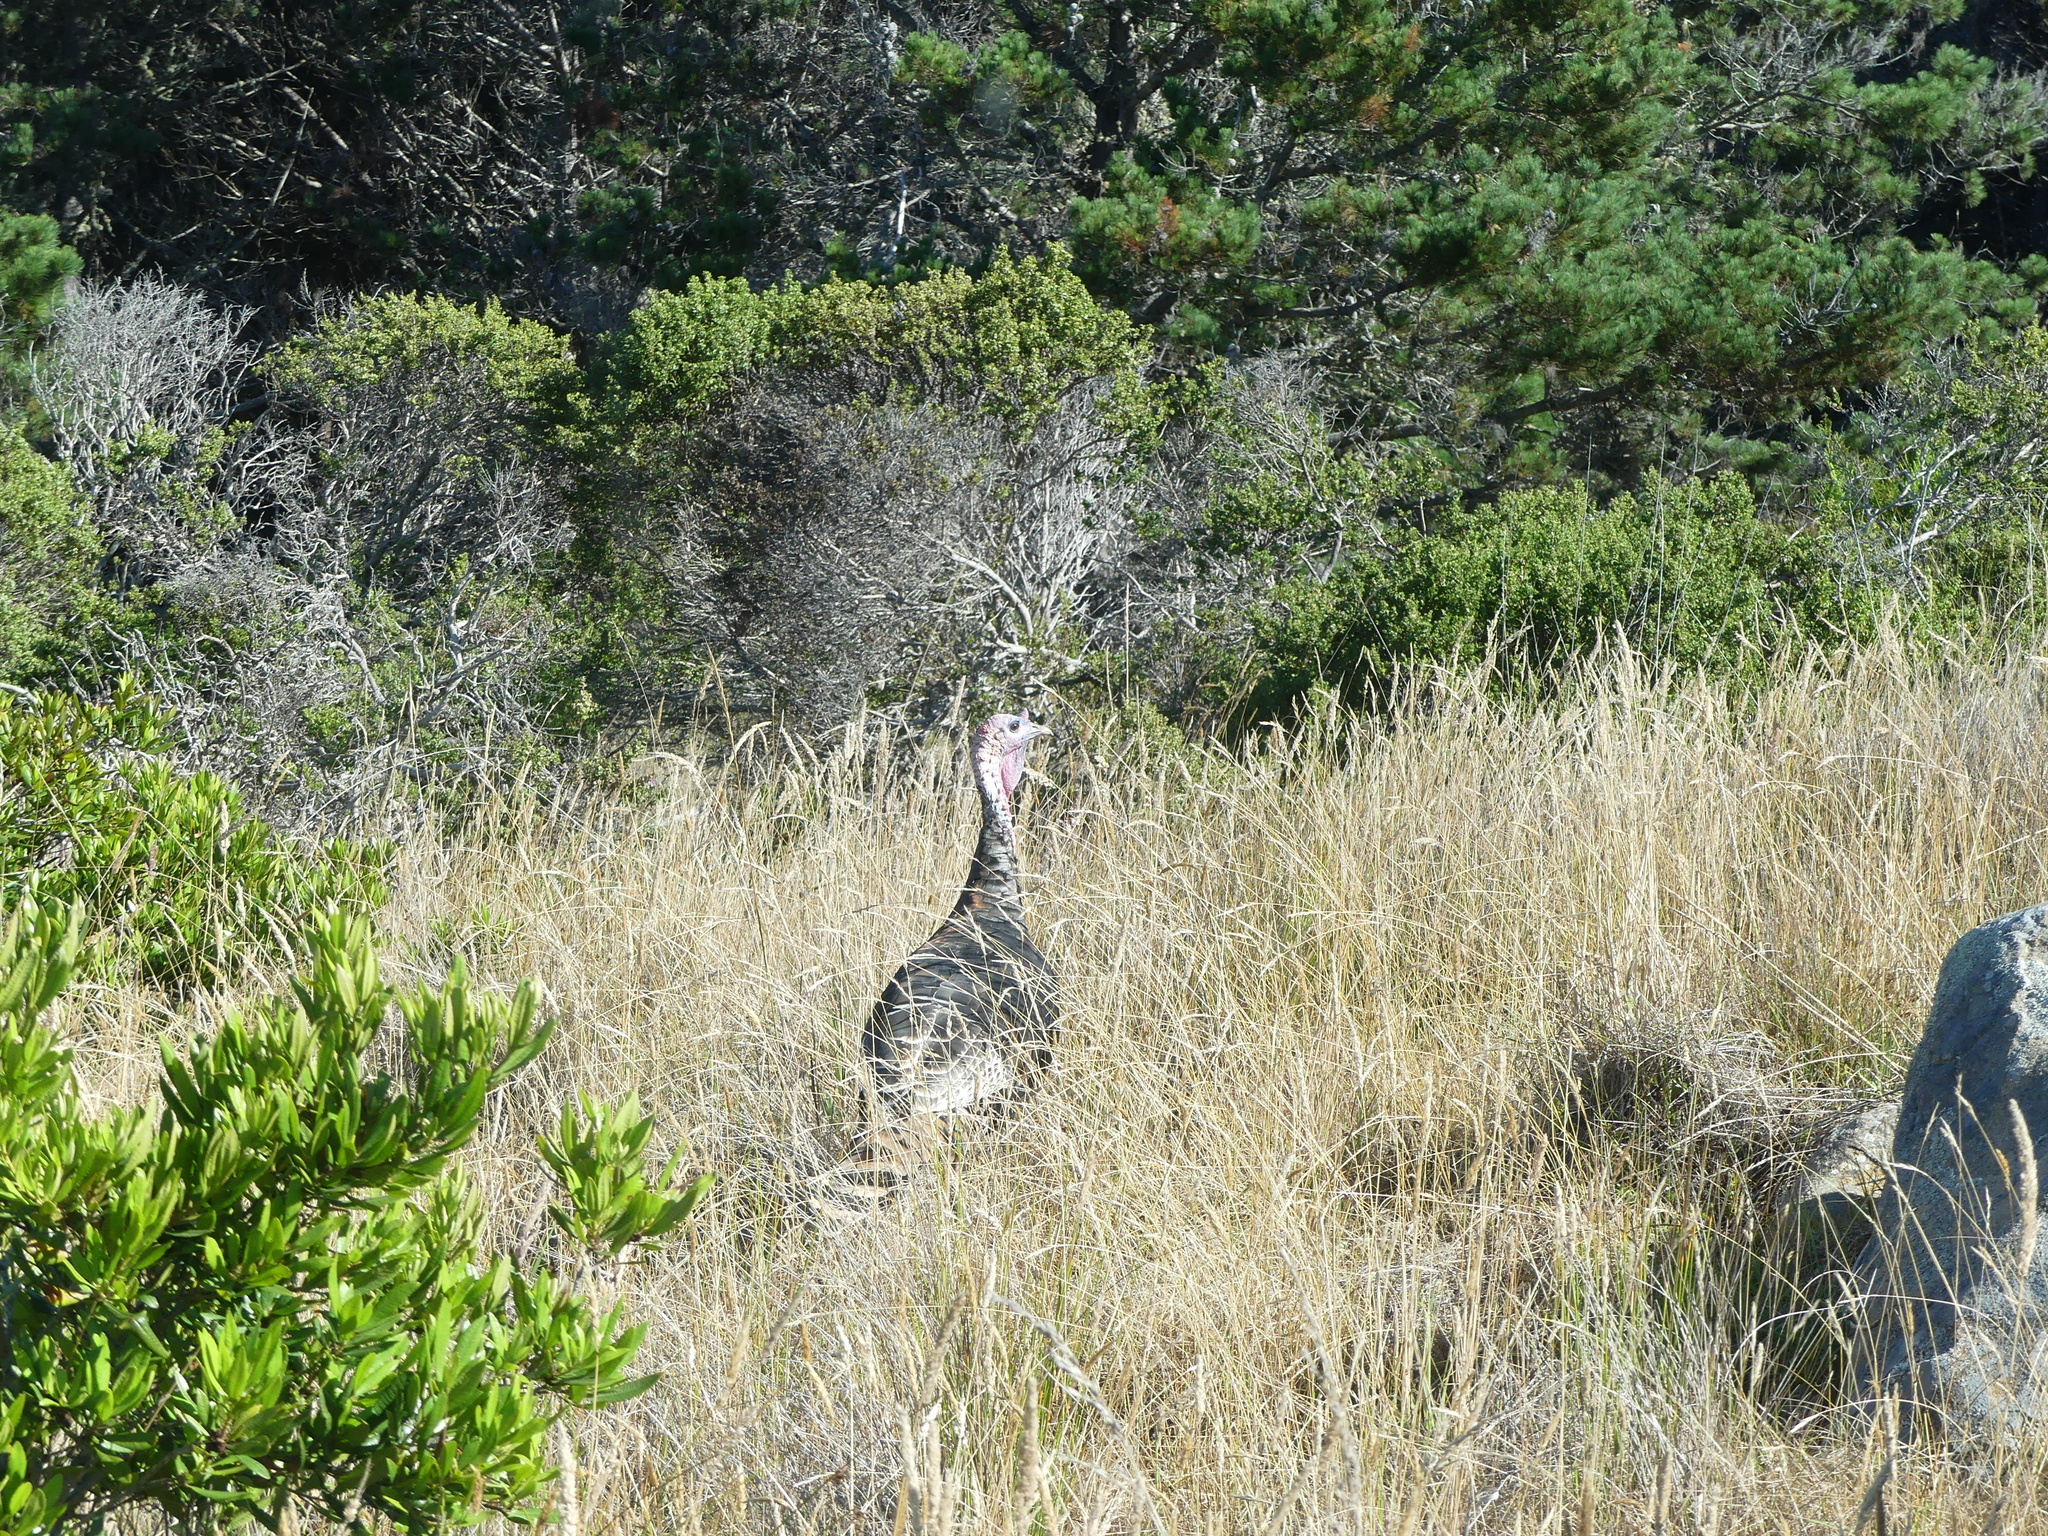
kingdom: Animalia
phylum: Chordata
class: Aves
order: Galliformes
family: Phasianidae
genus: Meleagris
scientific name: Meleagris gallopavo
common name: Wild turkey
